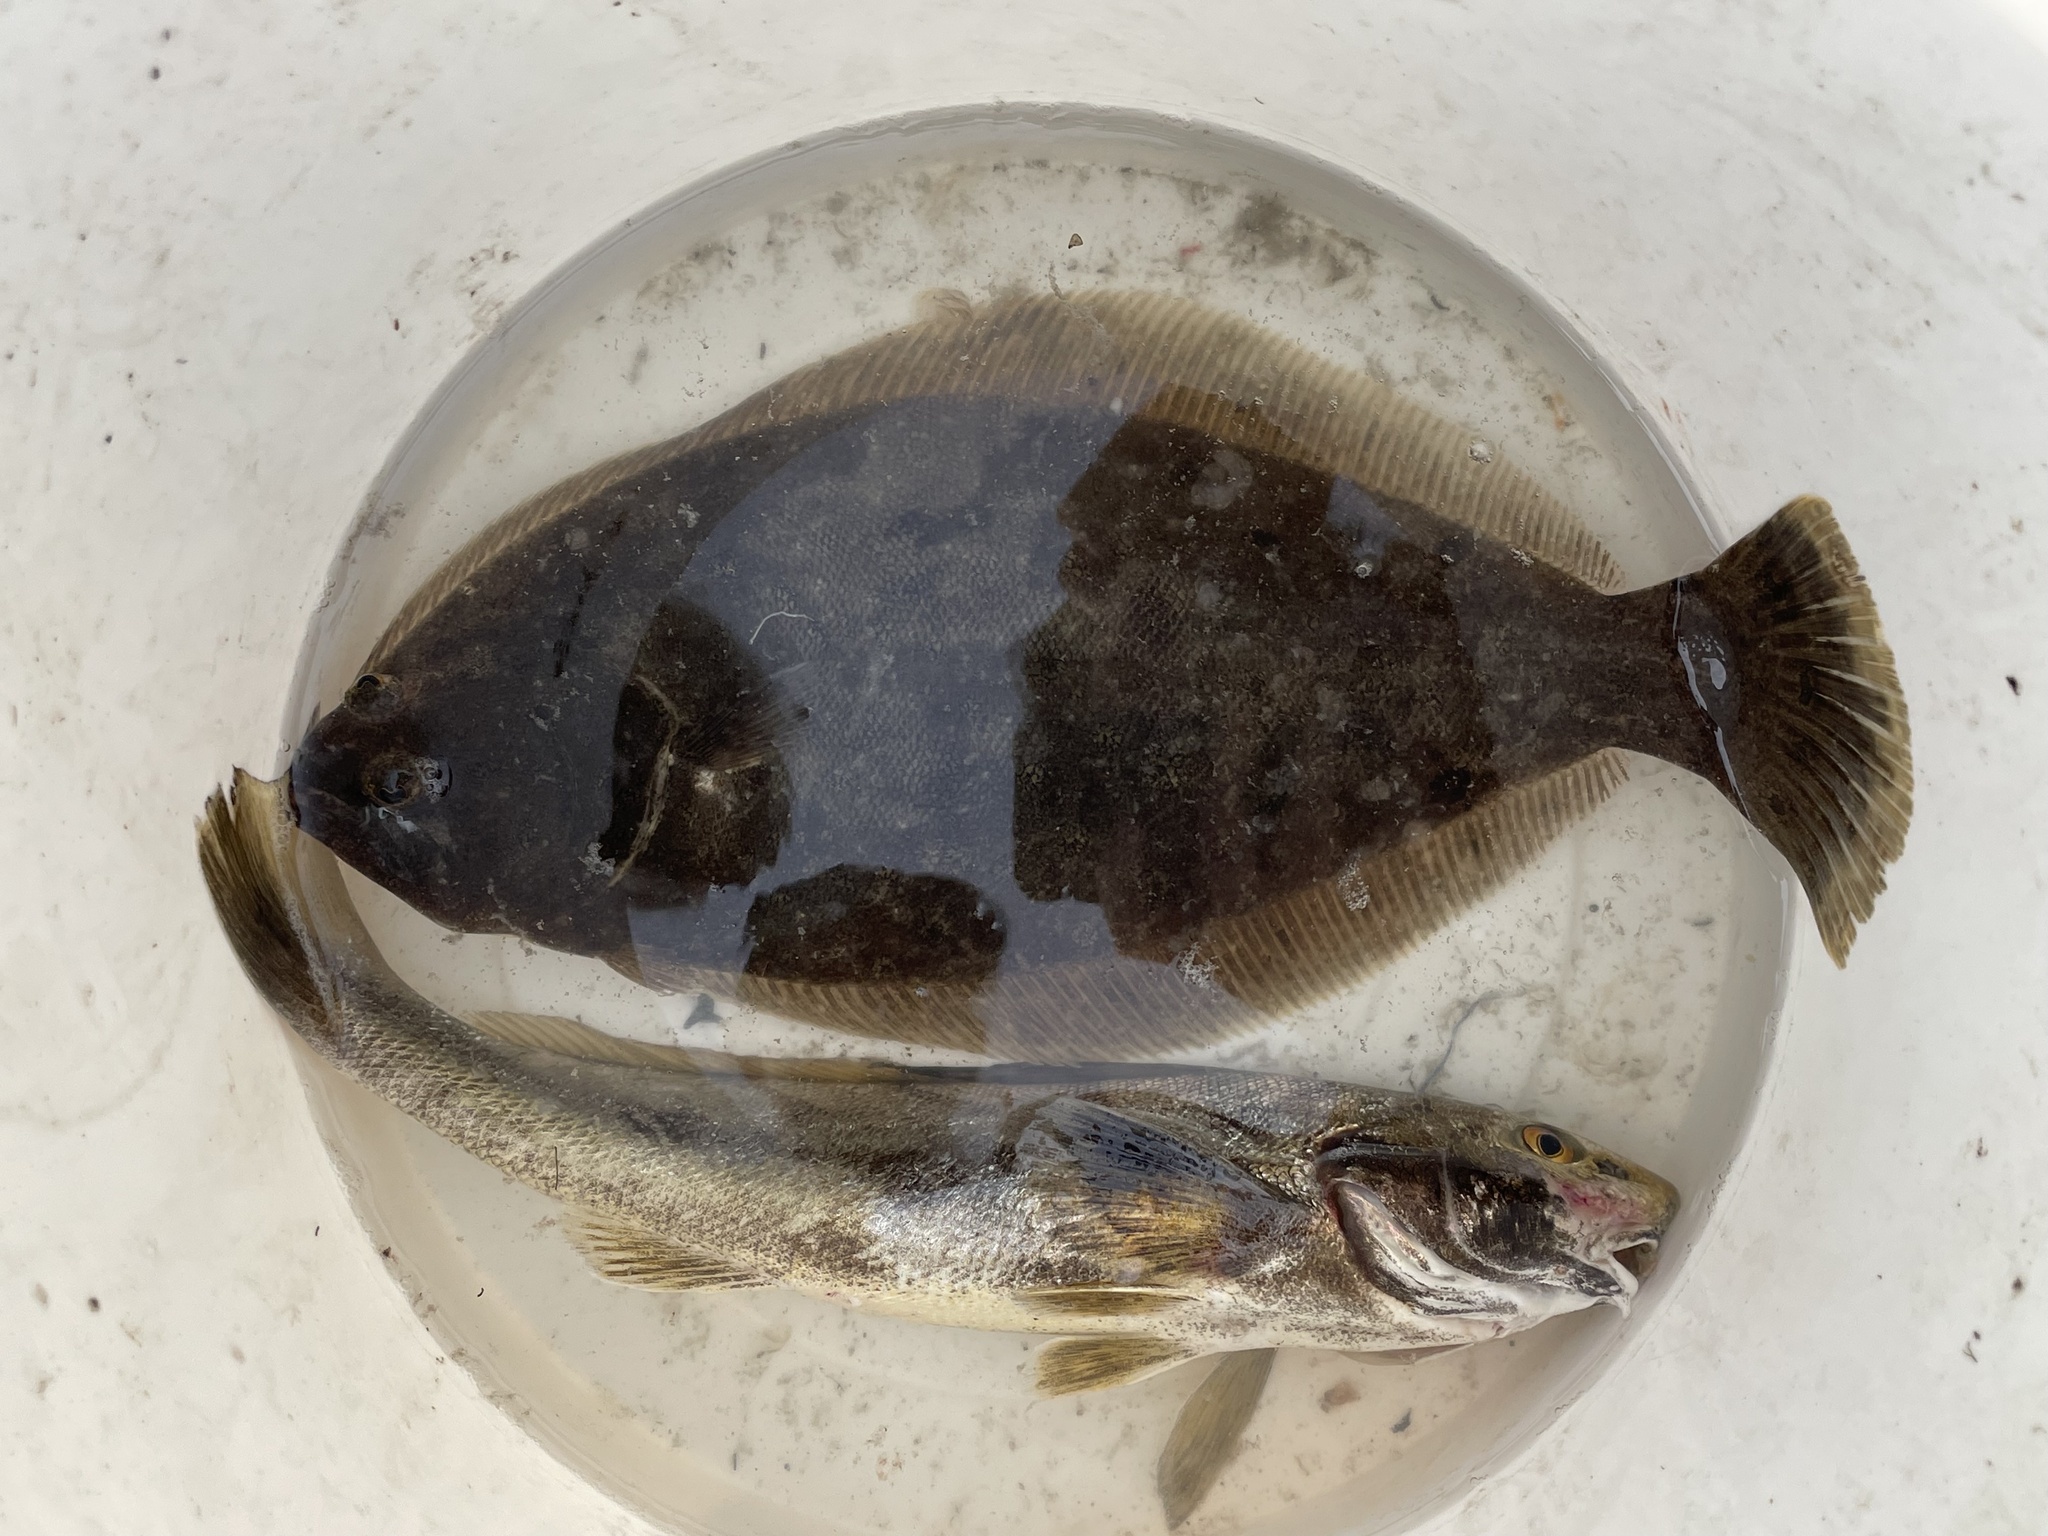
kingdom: Animalia
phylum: Chordata
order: Pleuronectiformes
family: Paralichthyidae
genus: Paralichthys
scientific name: Paralichthys dentatus
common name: Summer flounder
